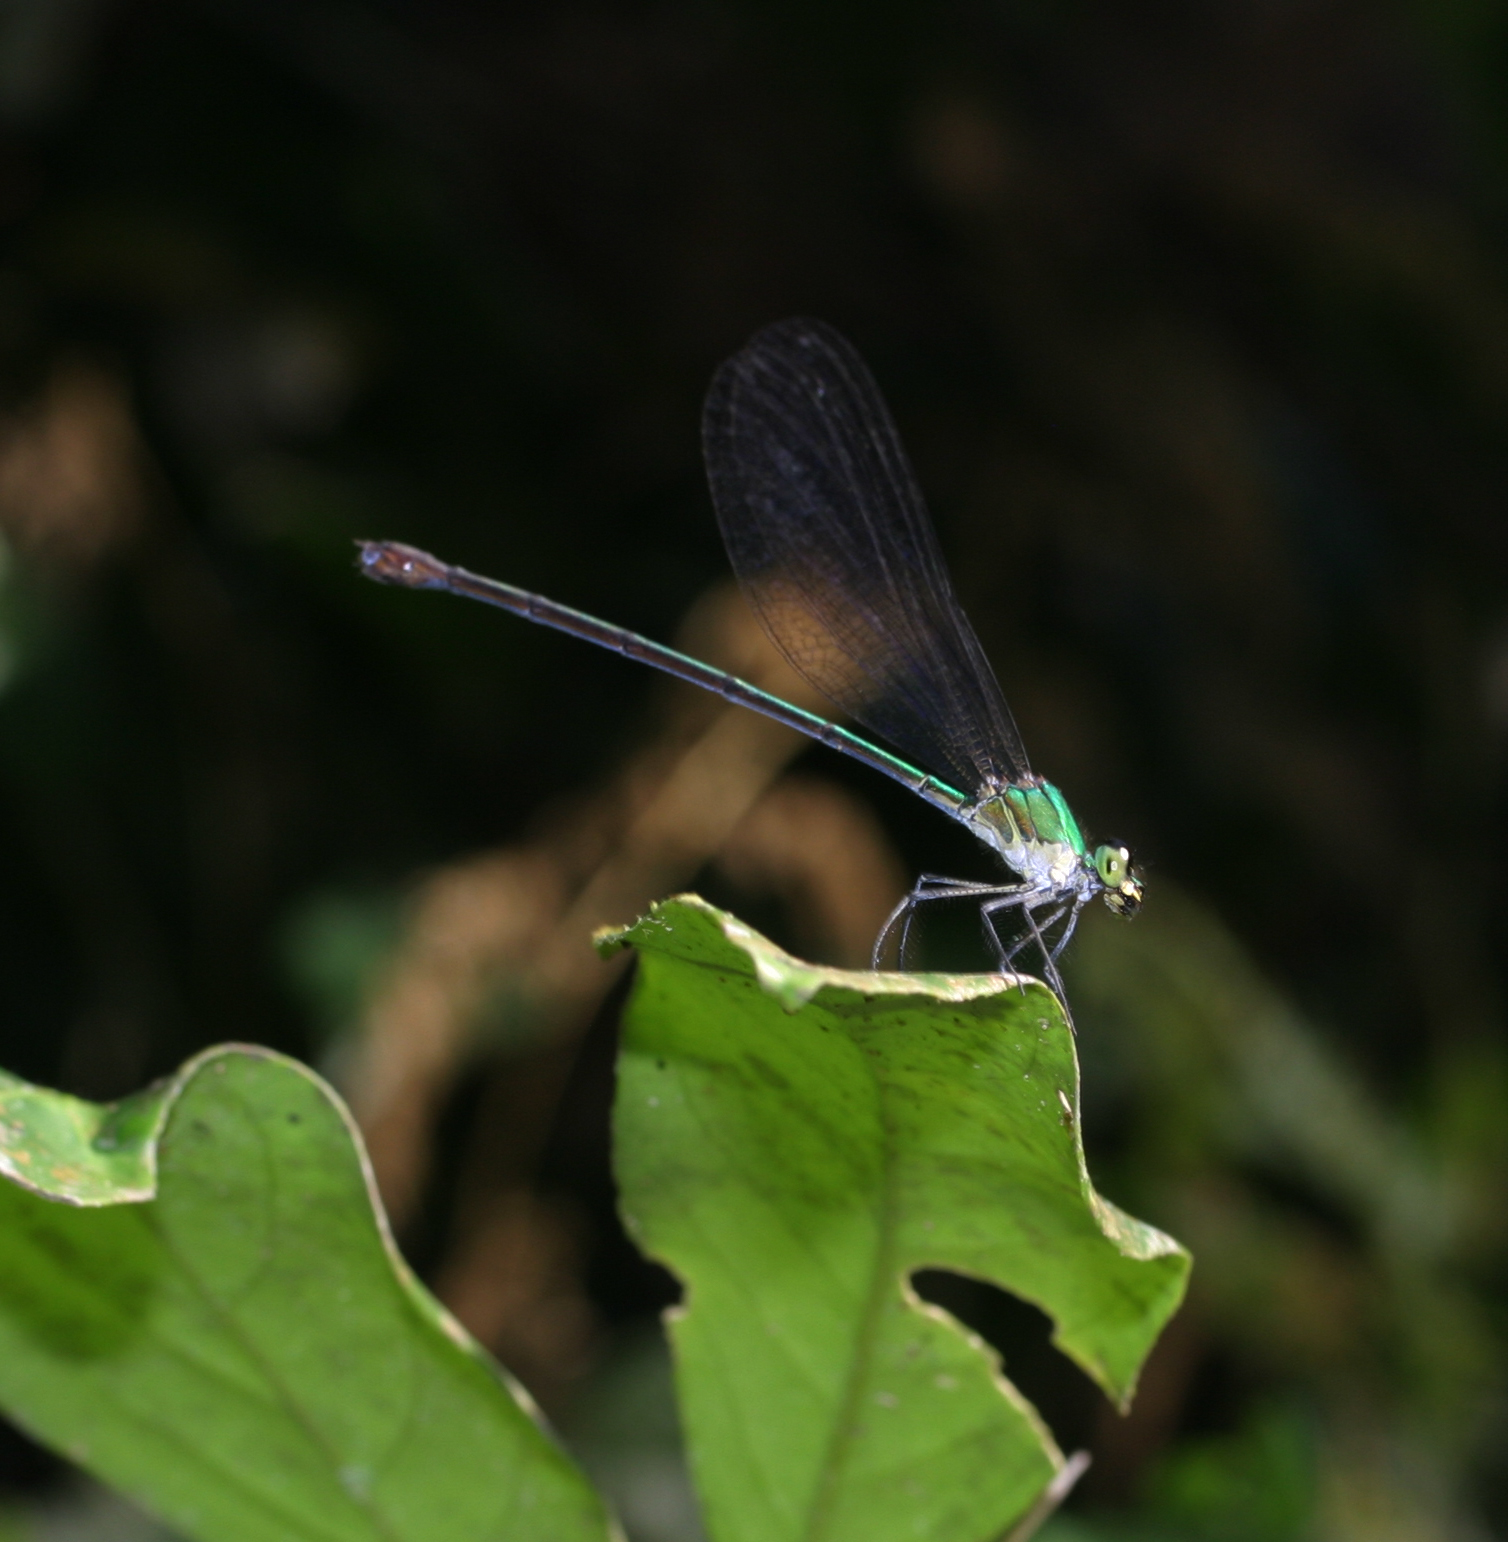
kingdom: Animalia
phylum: Arthropoda
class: Insecta
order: Odonata
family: Calopterygidae
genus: Vestalis
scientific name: Vestalis anne
